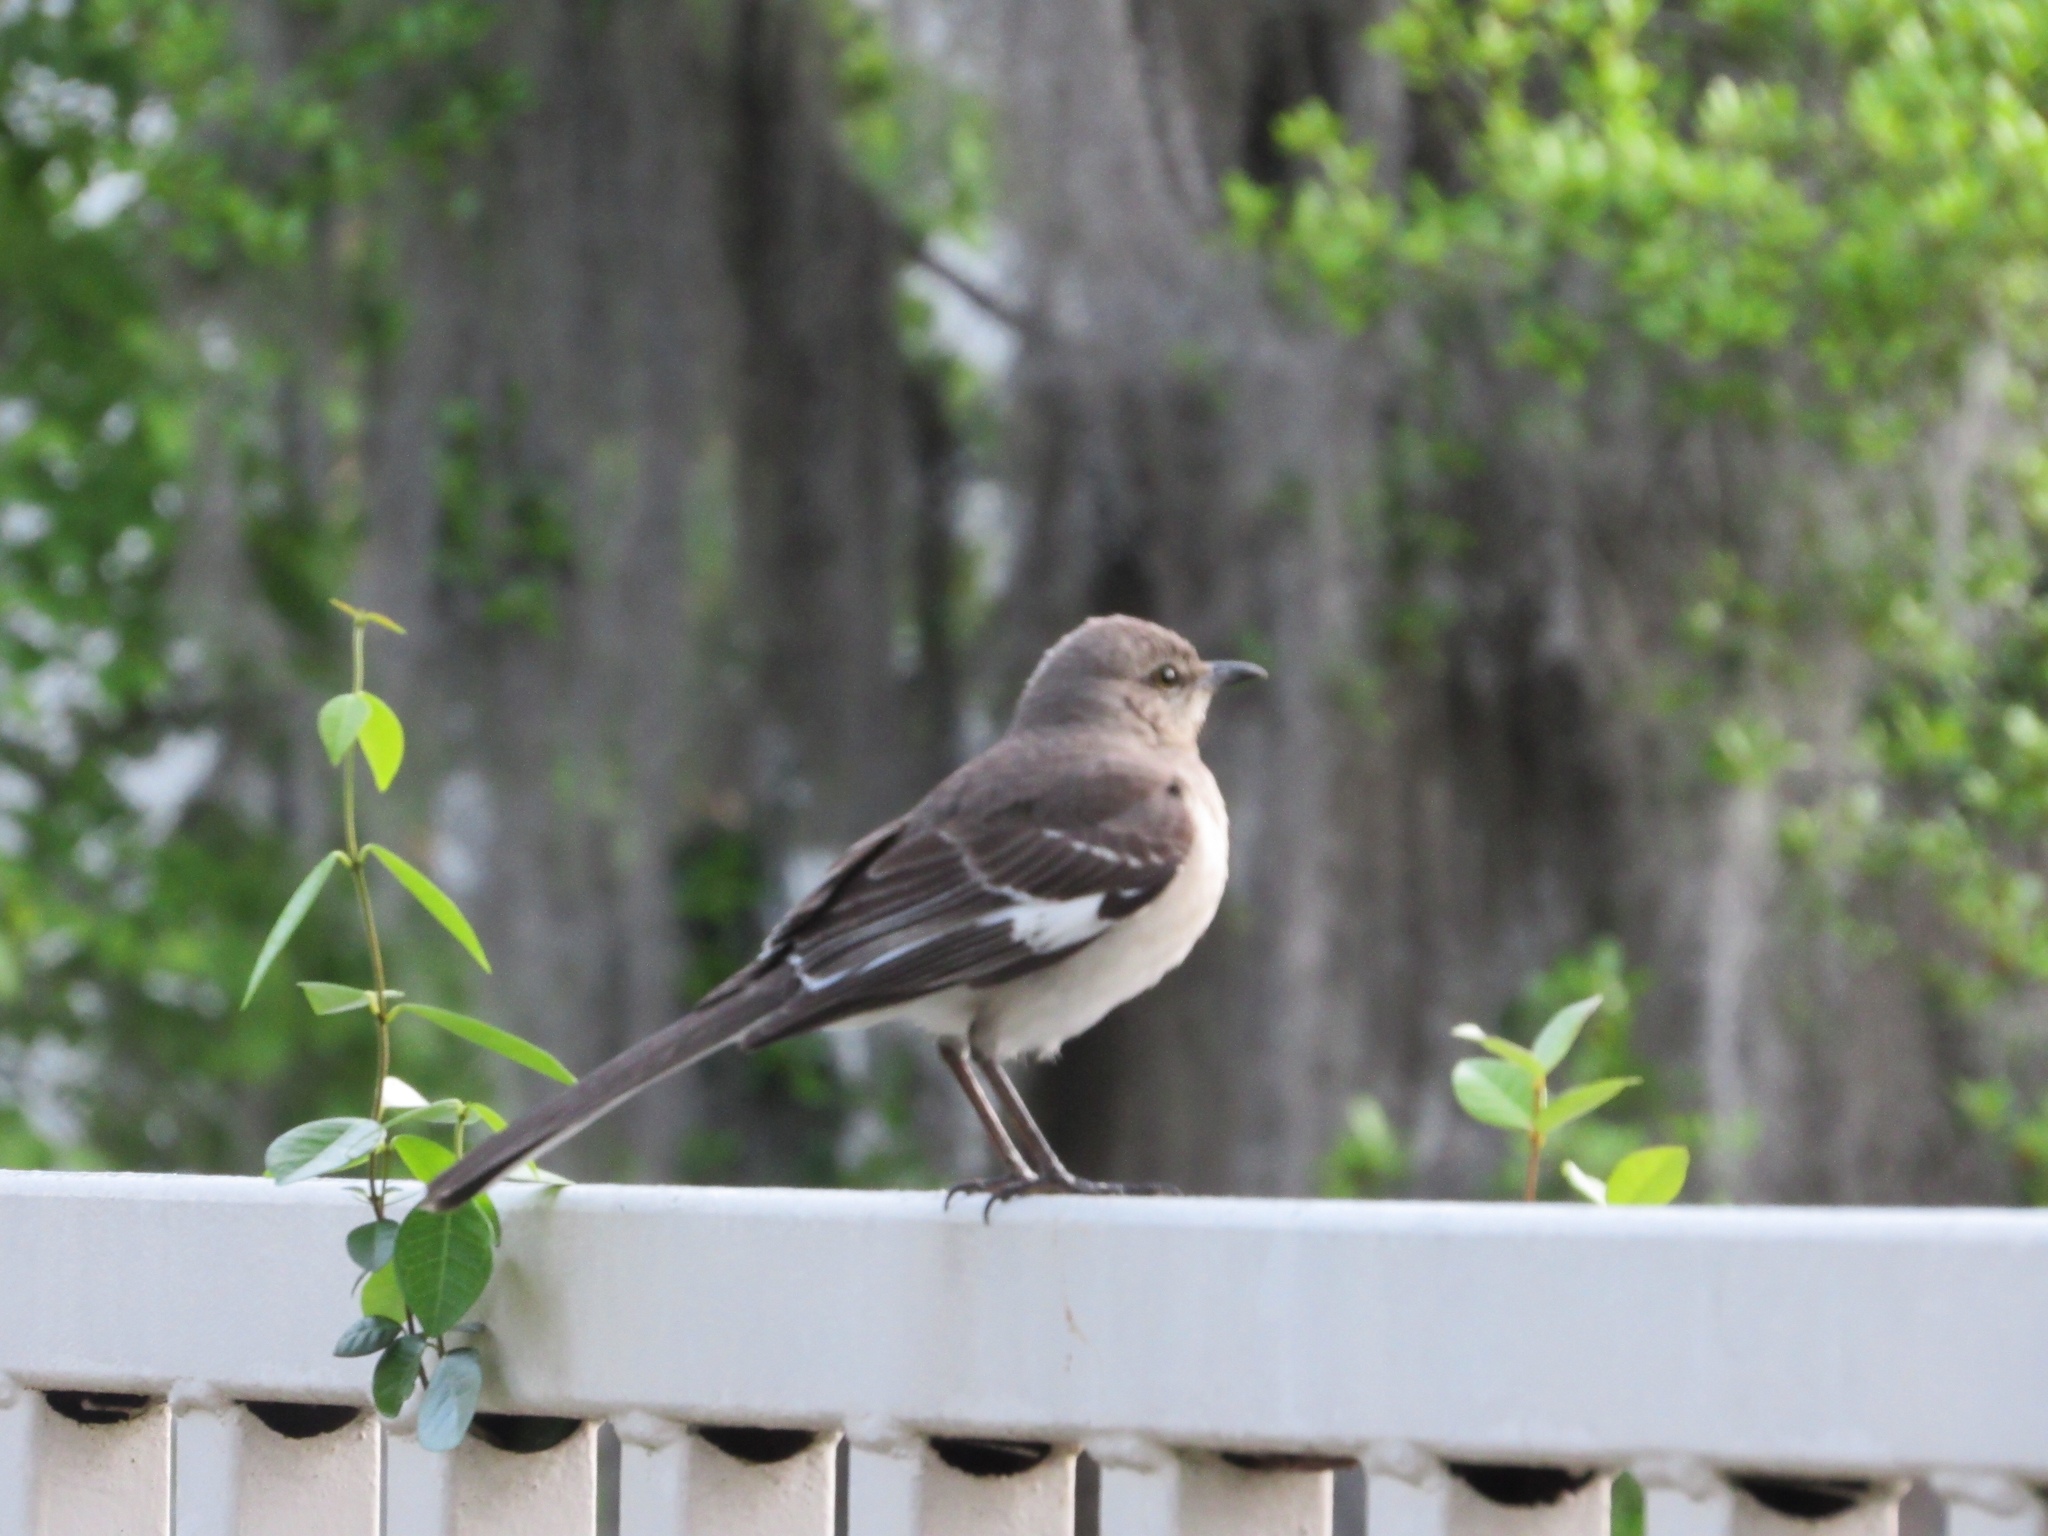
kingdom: Animalia
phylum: Chordata
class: Aves
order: Passeriformes
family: Mimidae
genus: Mimus
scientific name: Mimus polyglottos
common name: Northern mockingbird
